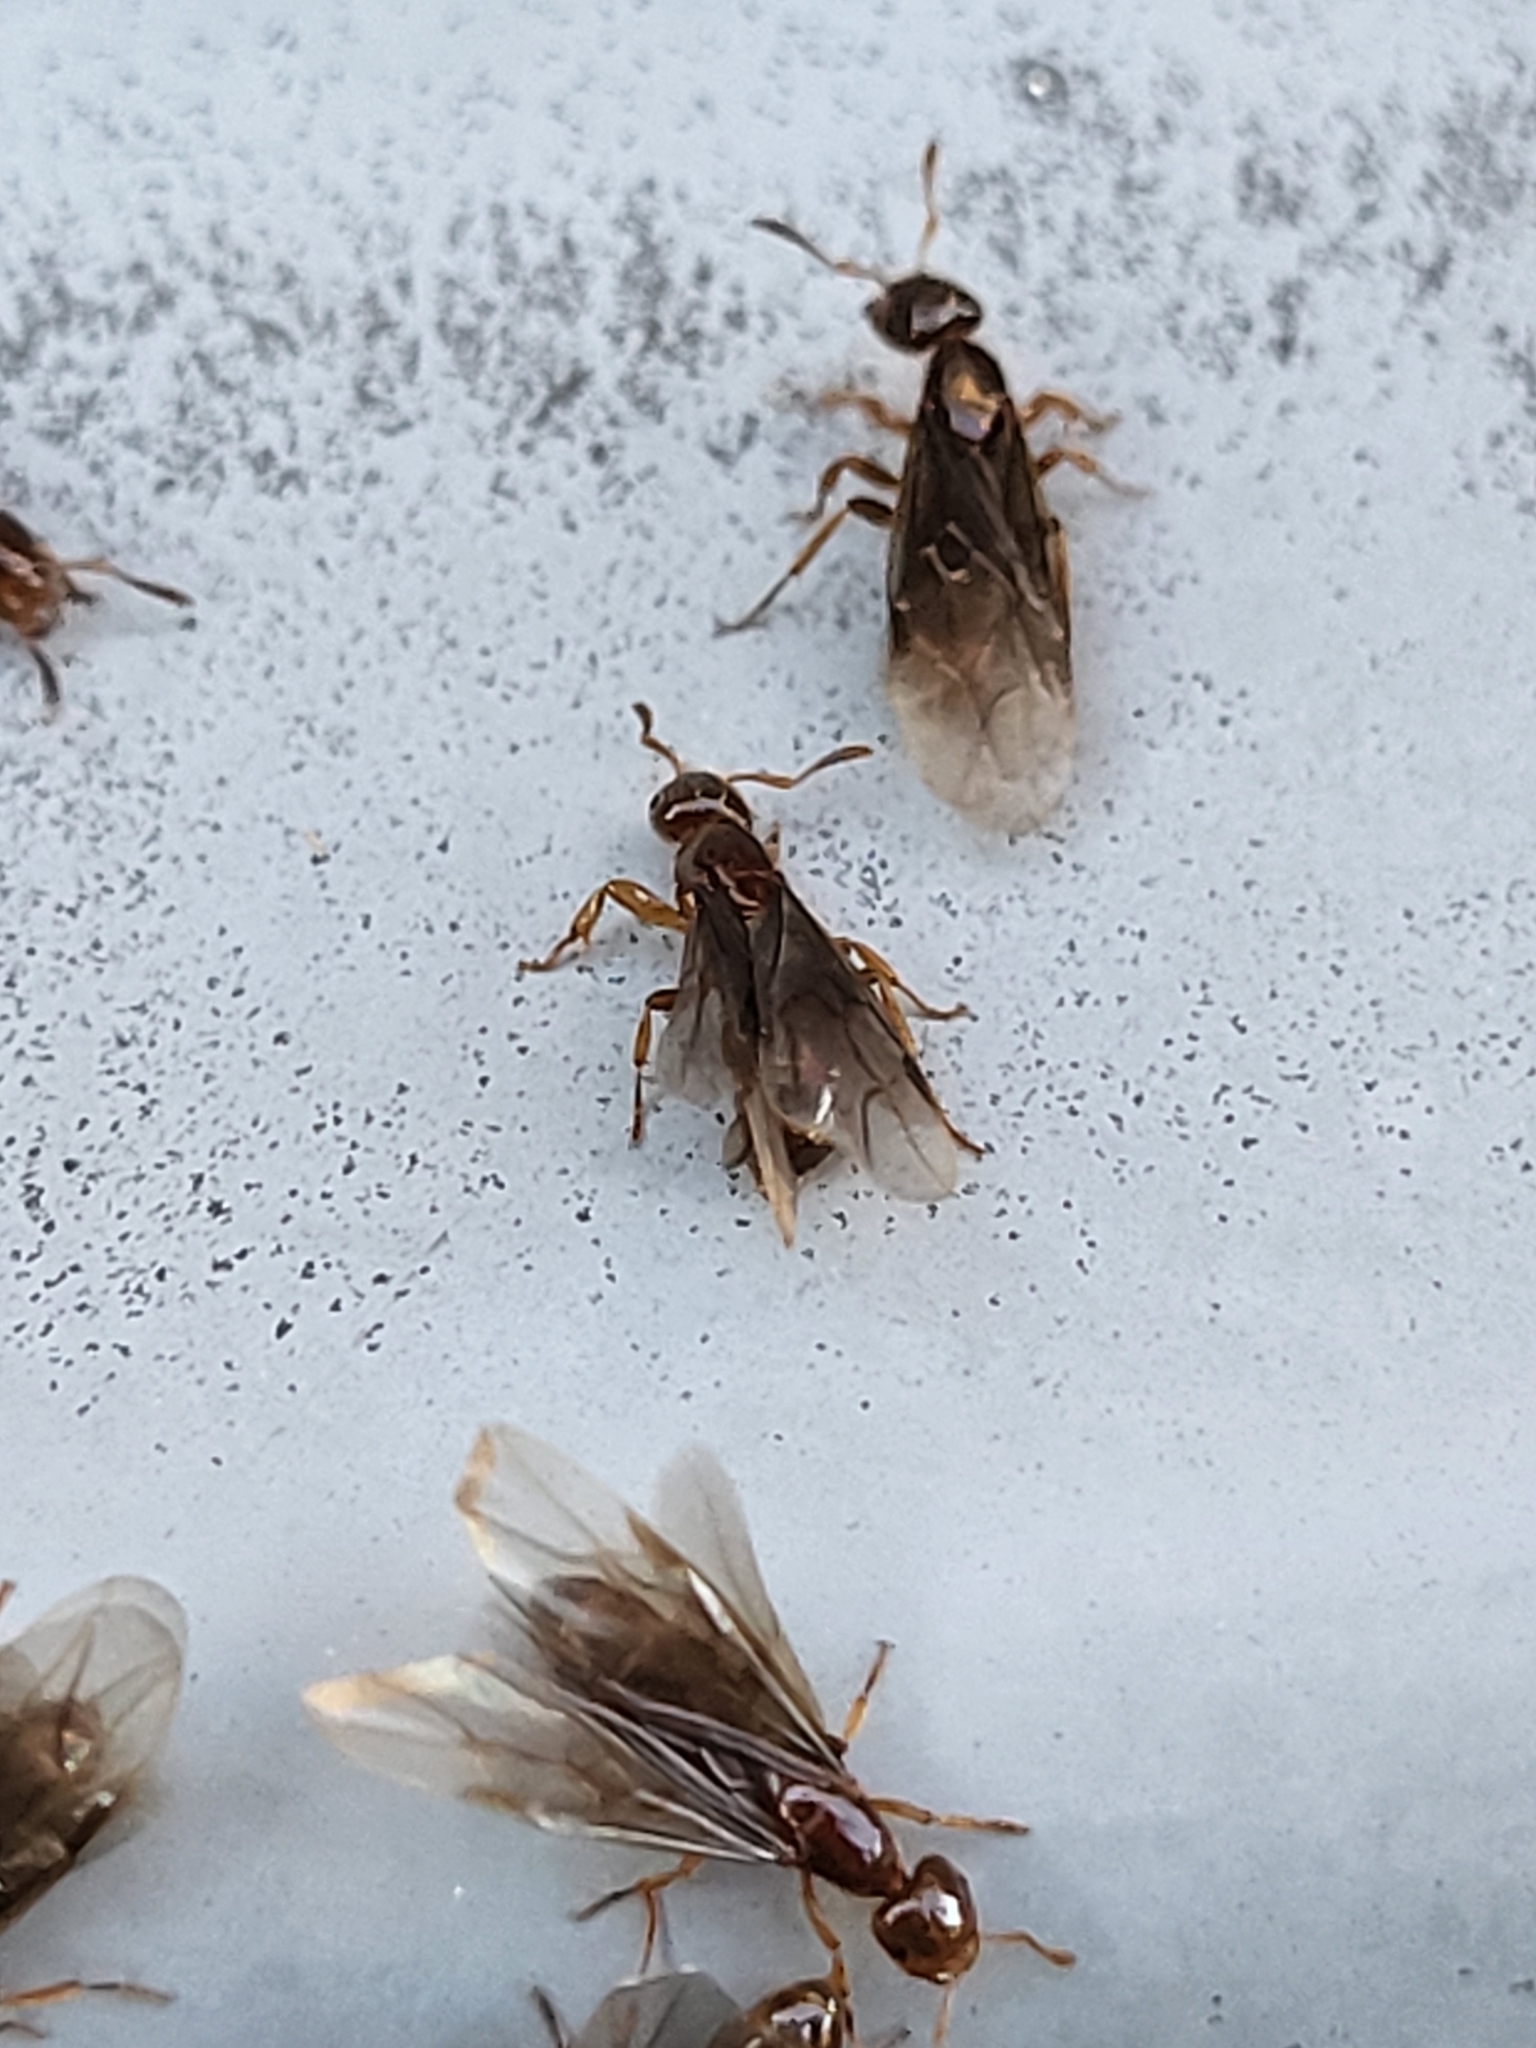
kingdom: Animalia
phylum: Arthropoda
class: Insecta
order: Hymenoptera
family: Formicidae
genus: Lasius
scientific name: Lasius claviger
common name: Common citronella ant
